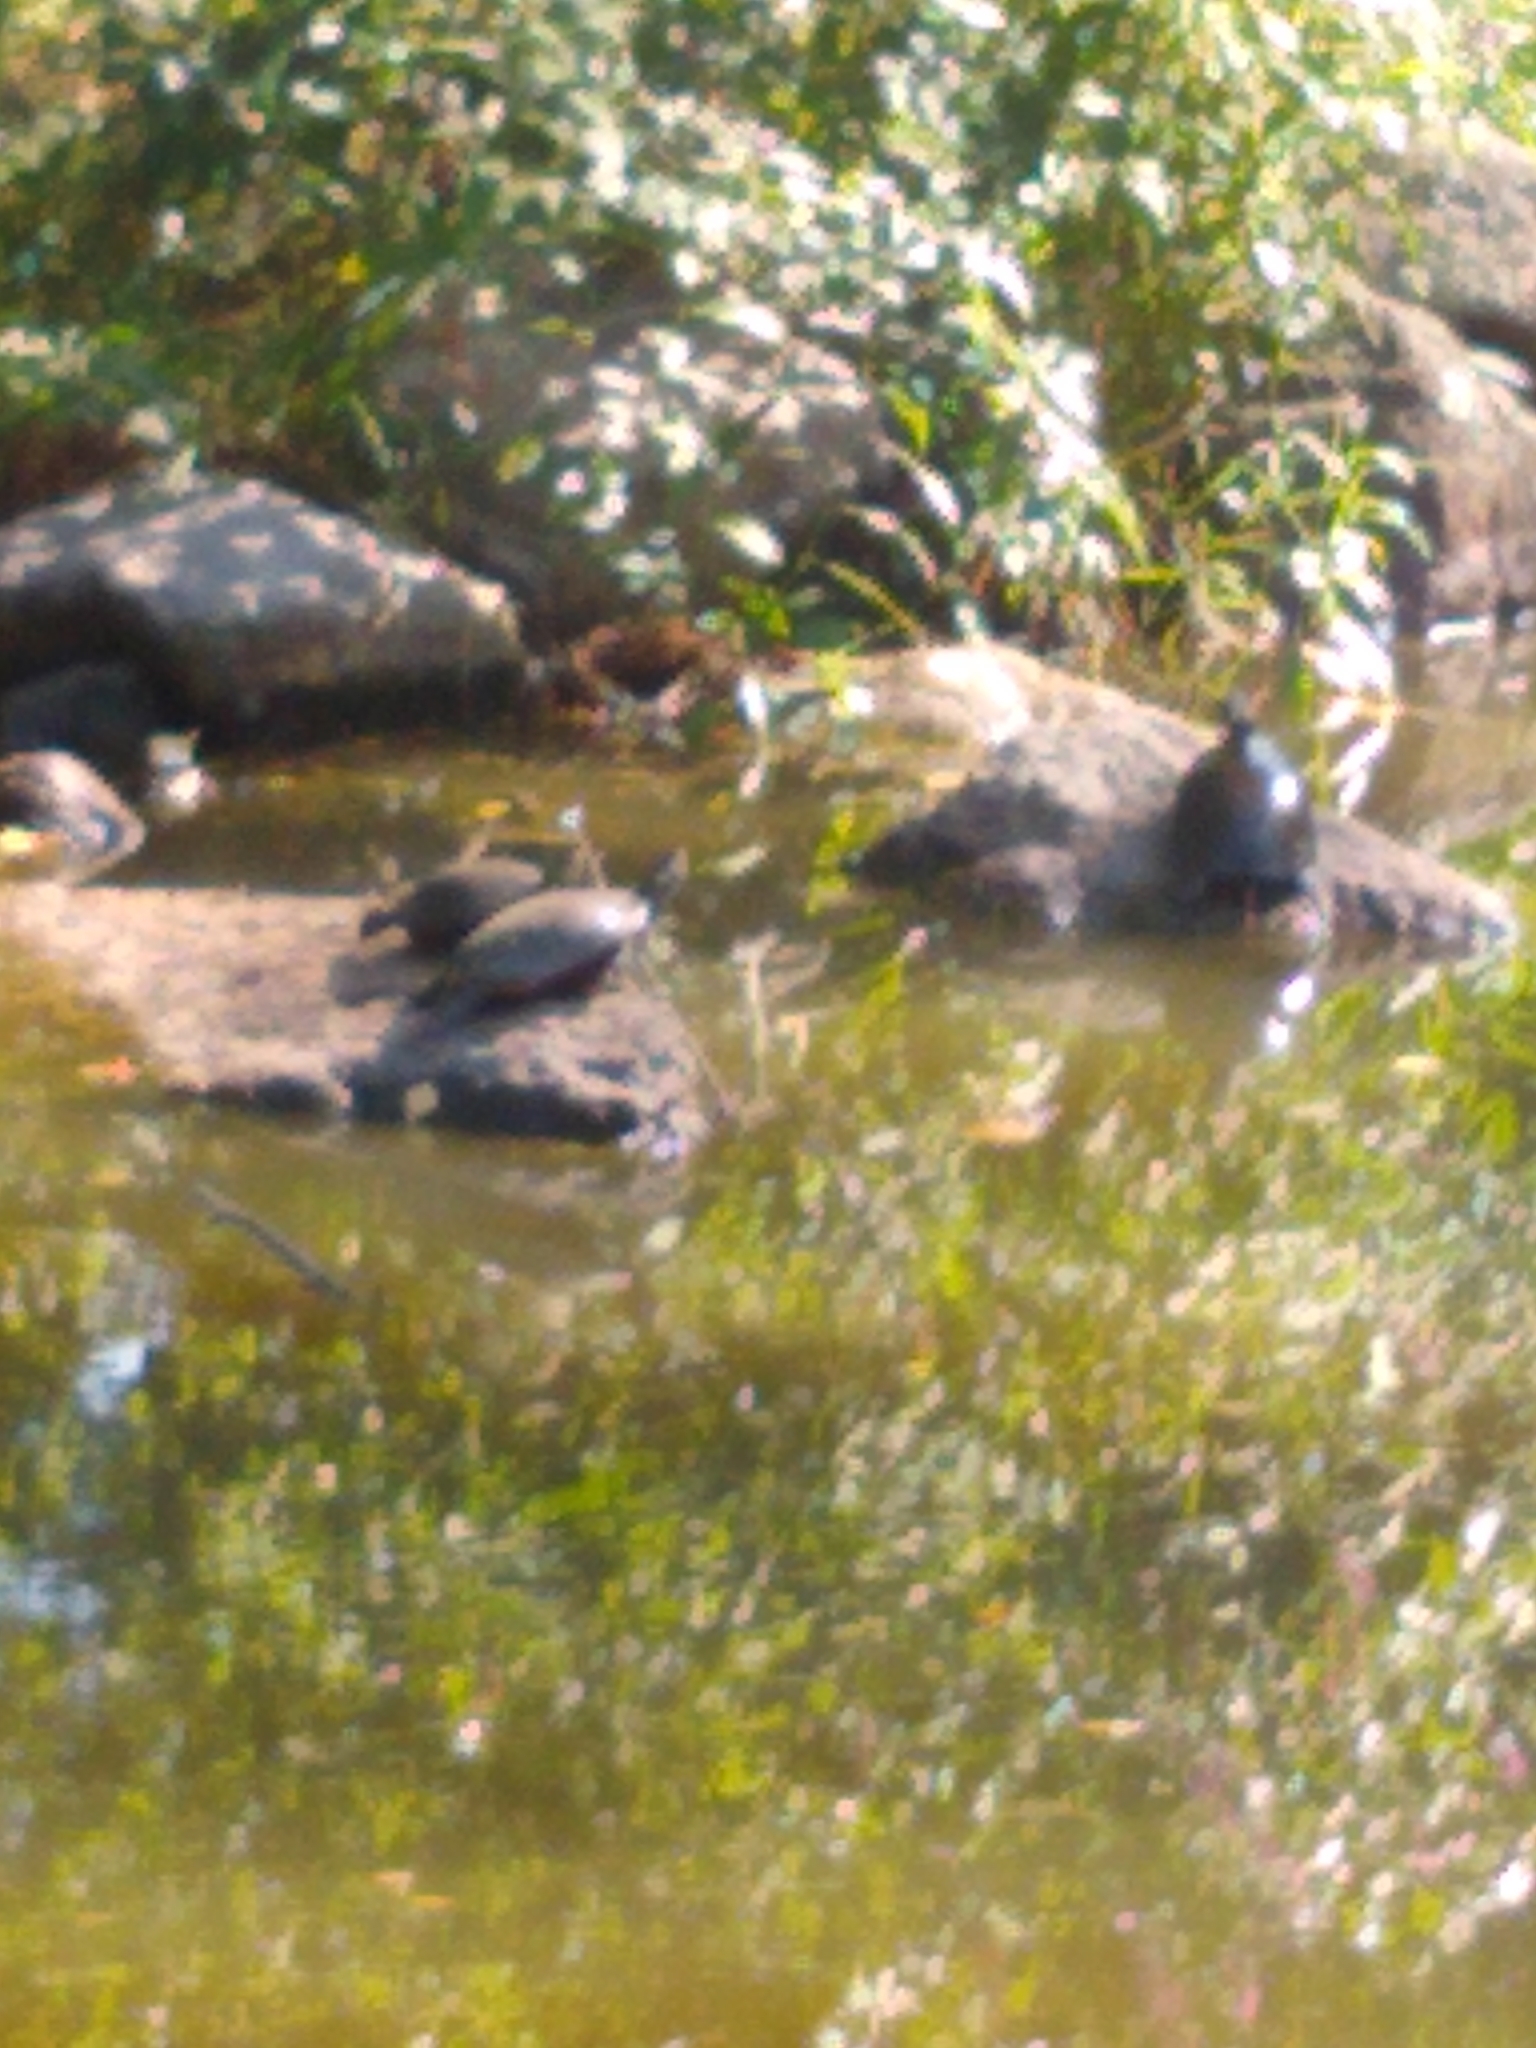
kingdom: Animalia
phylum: Chordata
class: Testudines
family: Emydidae
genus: Chrysemys
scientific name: Chrysemys picta
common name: Painted turtle
